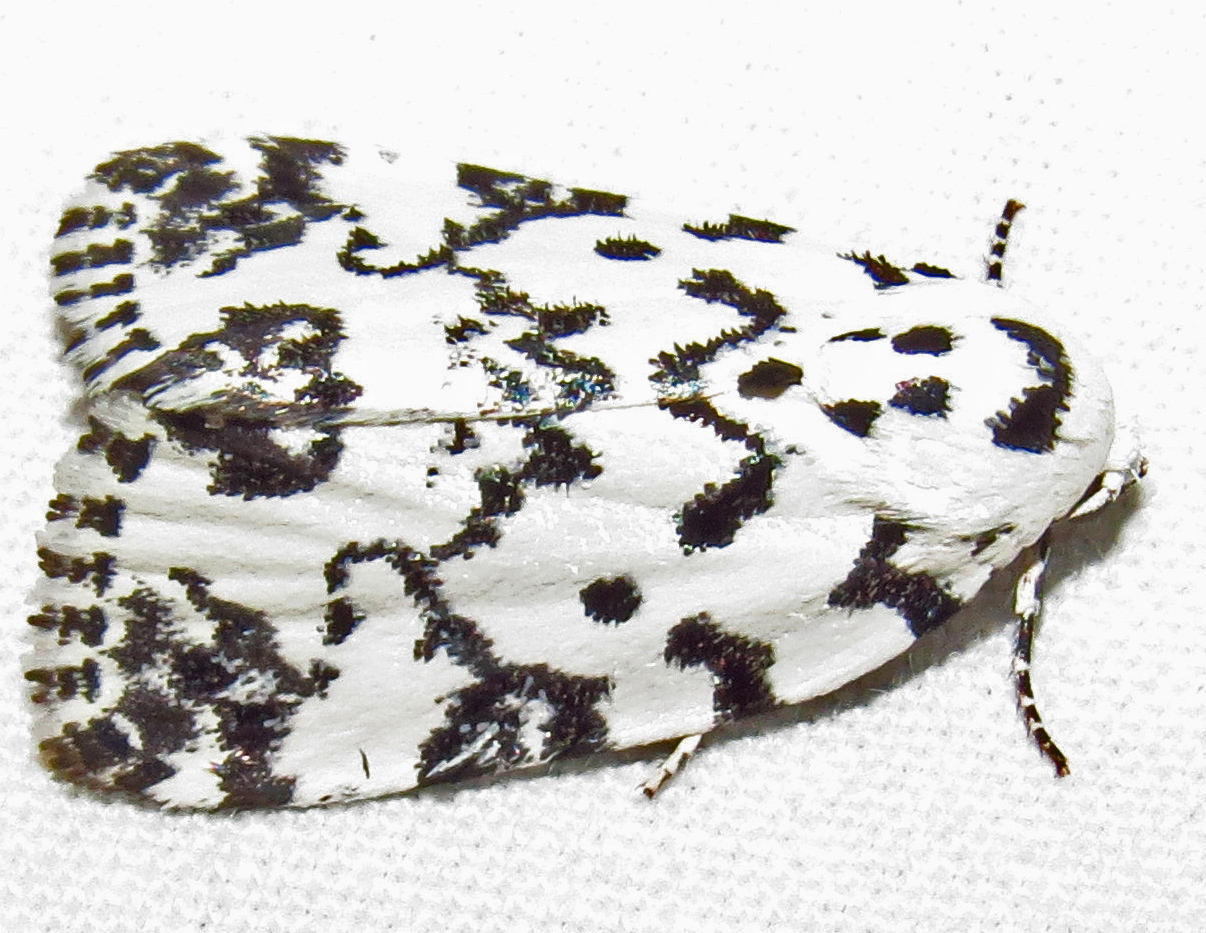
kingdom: Animalia
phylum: Arthropoda
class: Insecta
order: Lepidoptera
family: Noctuidae
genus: Polygrammate
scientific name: Polygrammate hebraeicum
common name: Hebrew moth
